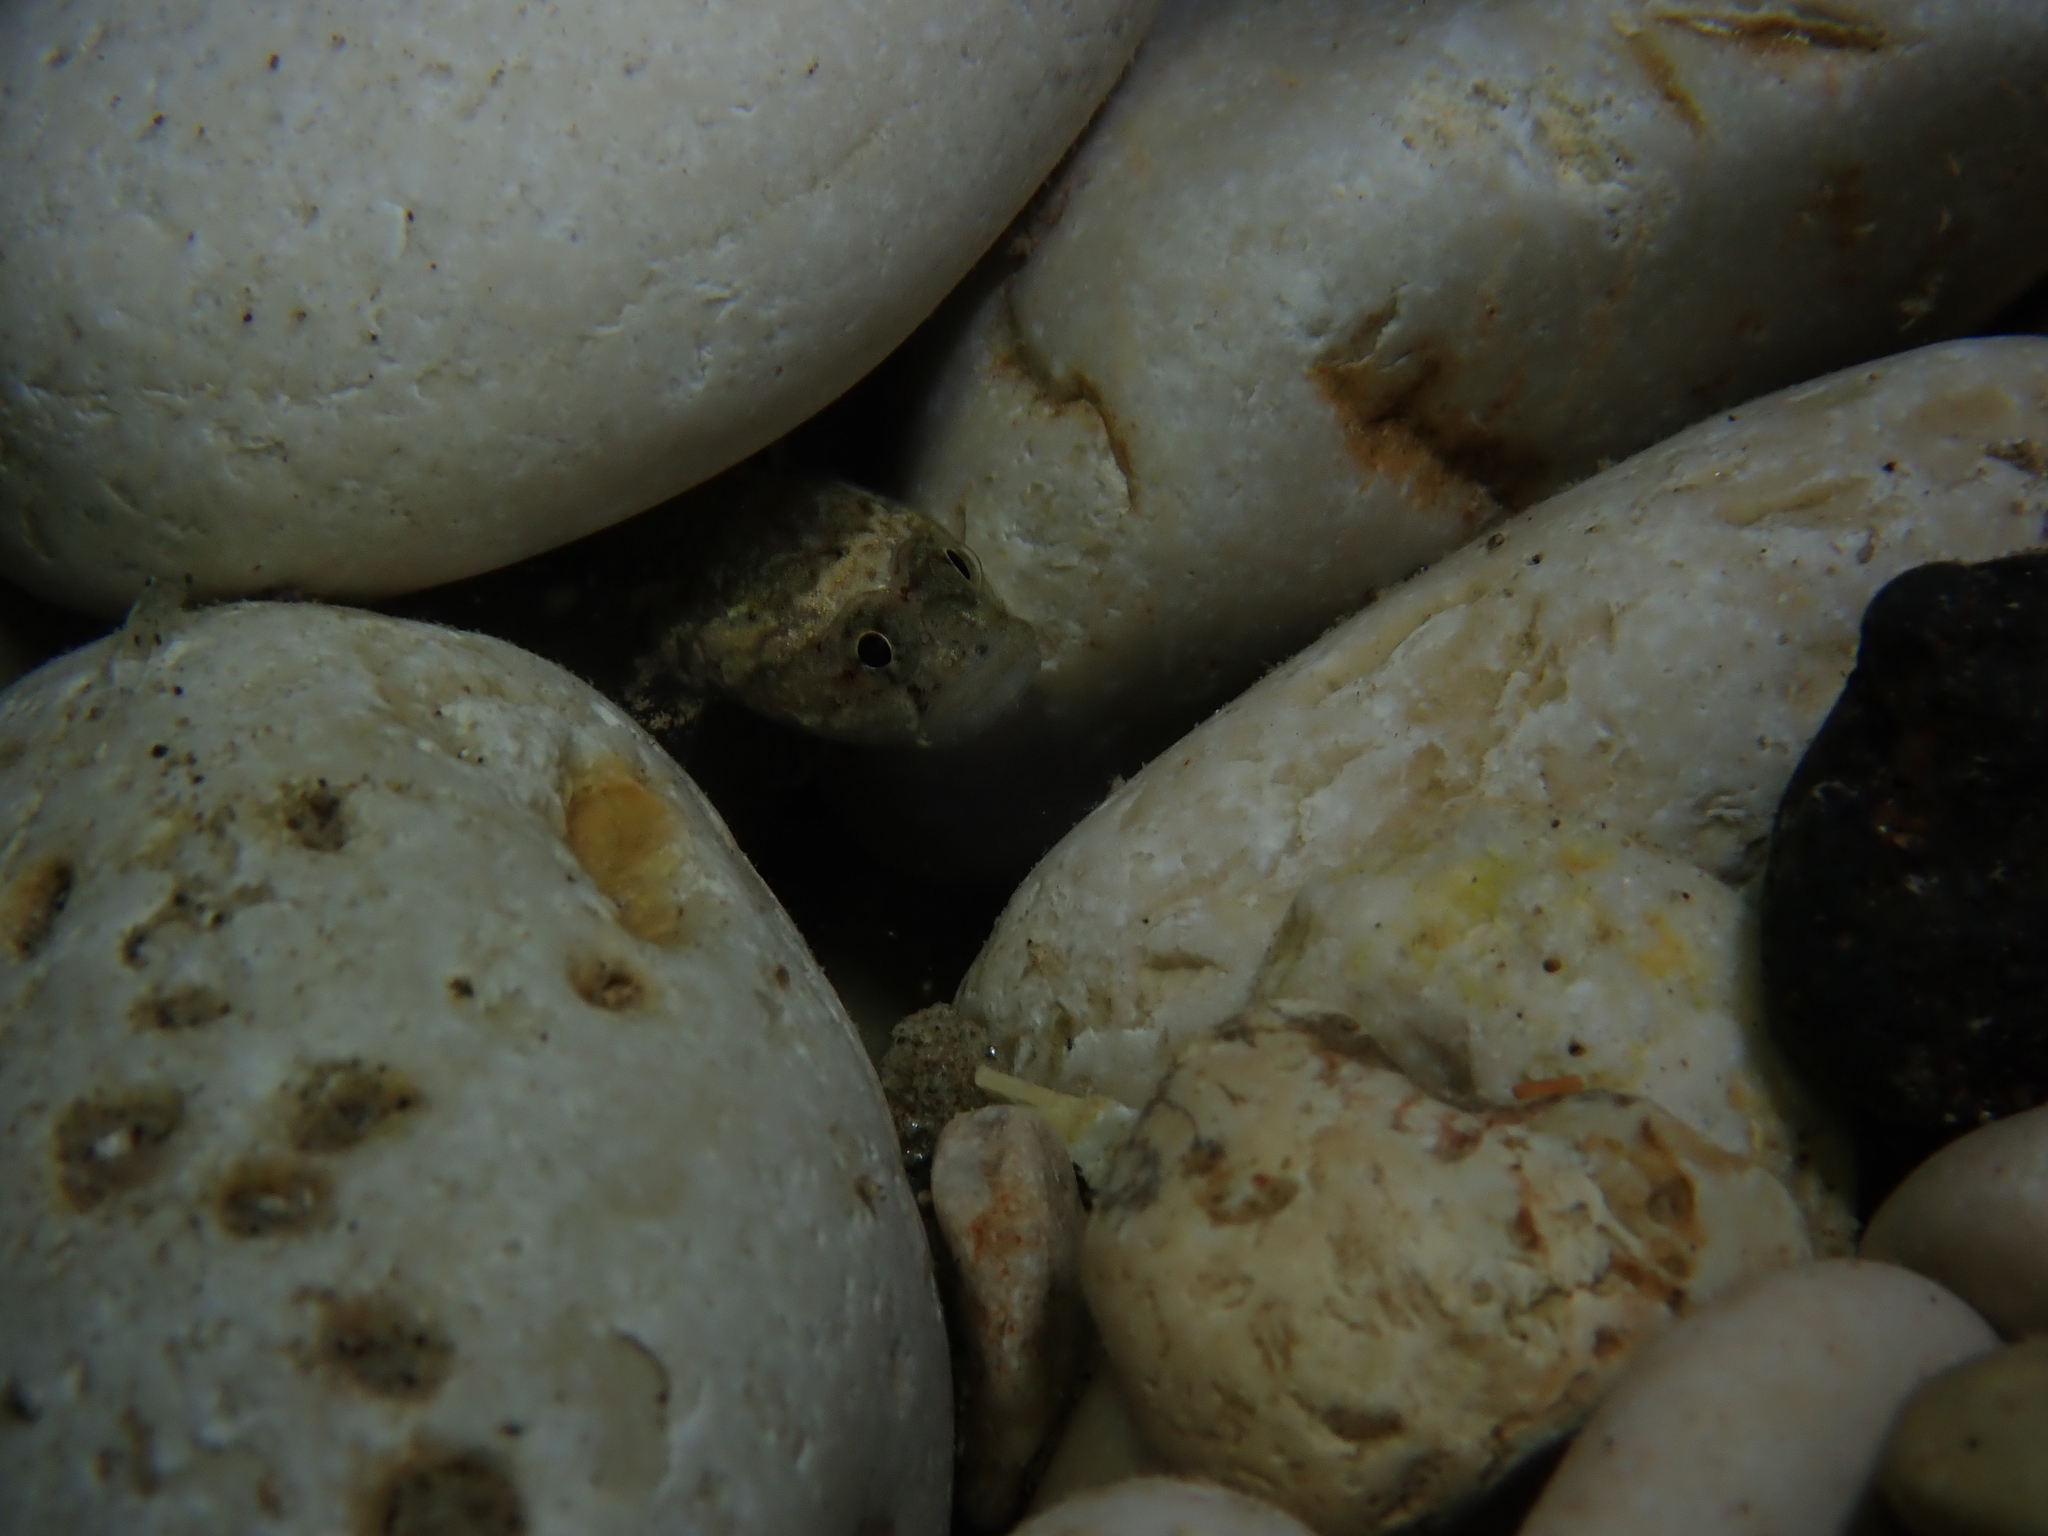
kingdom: Animalia
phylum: Chordata
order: Perciformes
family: Gobiidae
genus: Zebrus
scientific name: Zebrus zebrus
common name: Zebra goby
